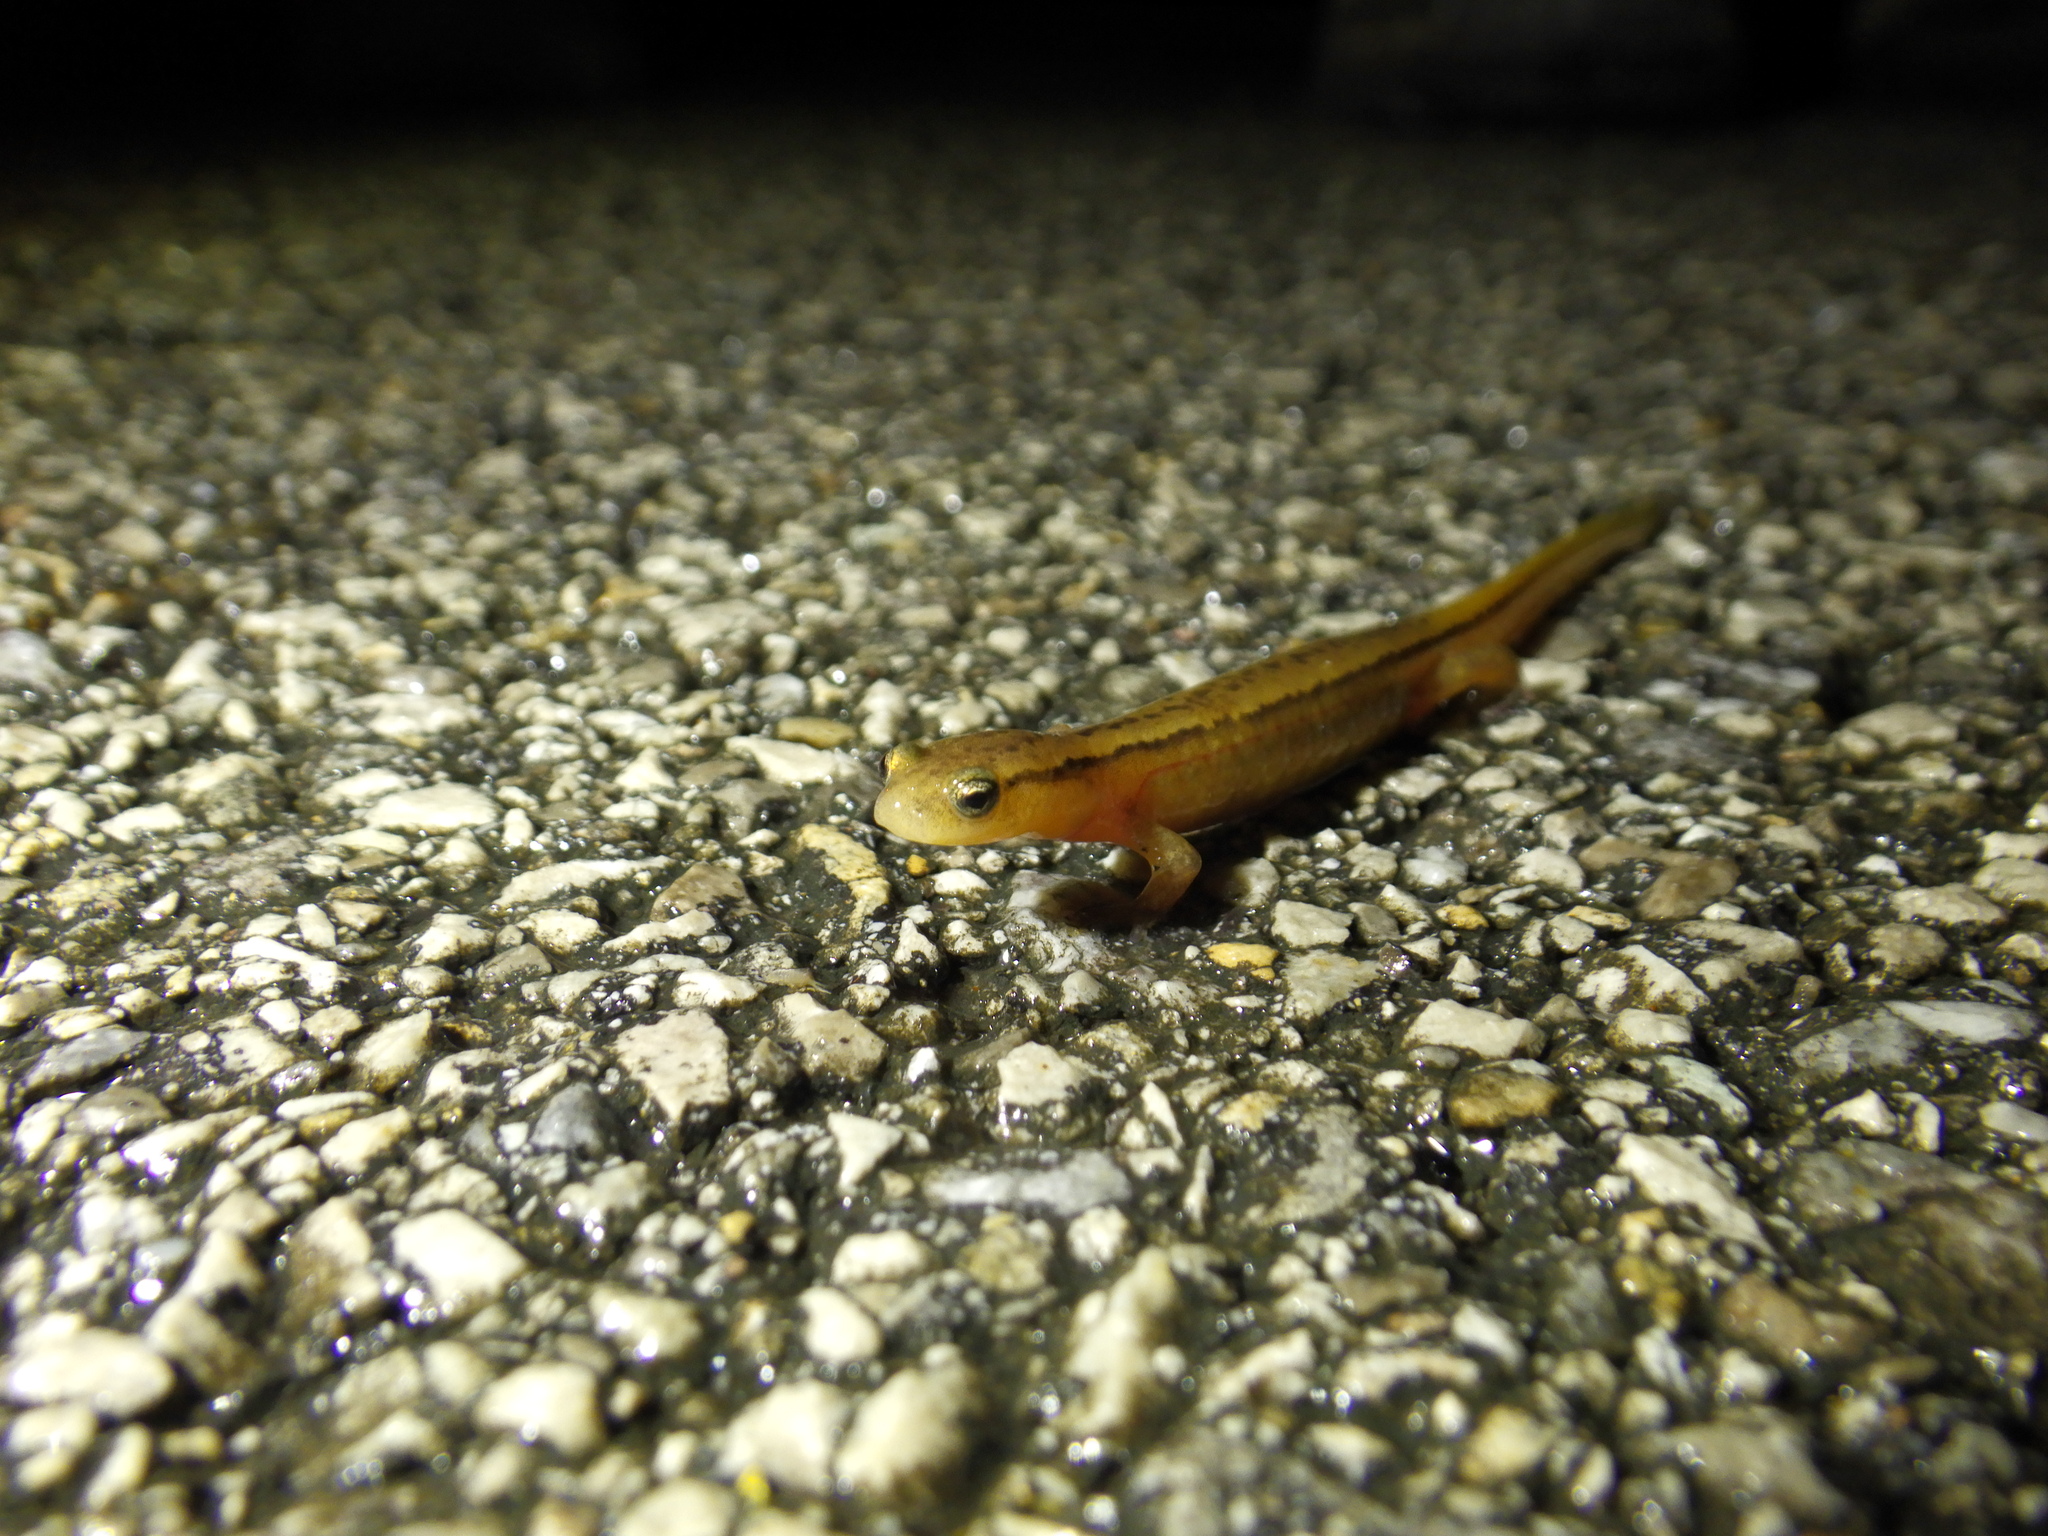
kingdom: Animalia
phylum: Chordata
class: Amphibia
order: Caudata
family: Plethodontidae
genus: Eurycea
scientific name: Eurycea cirrigera
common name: Southern two-lined salamander
